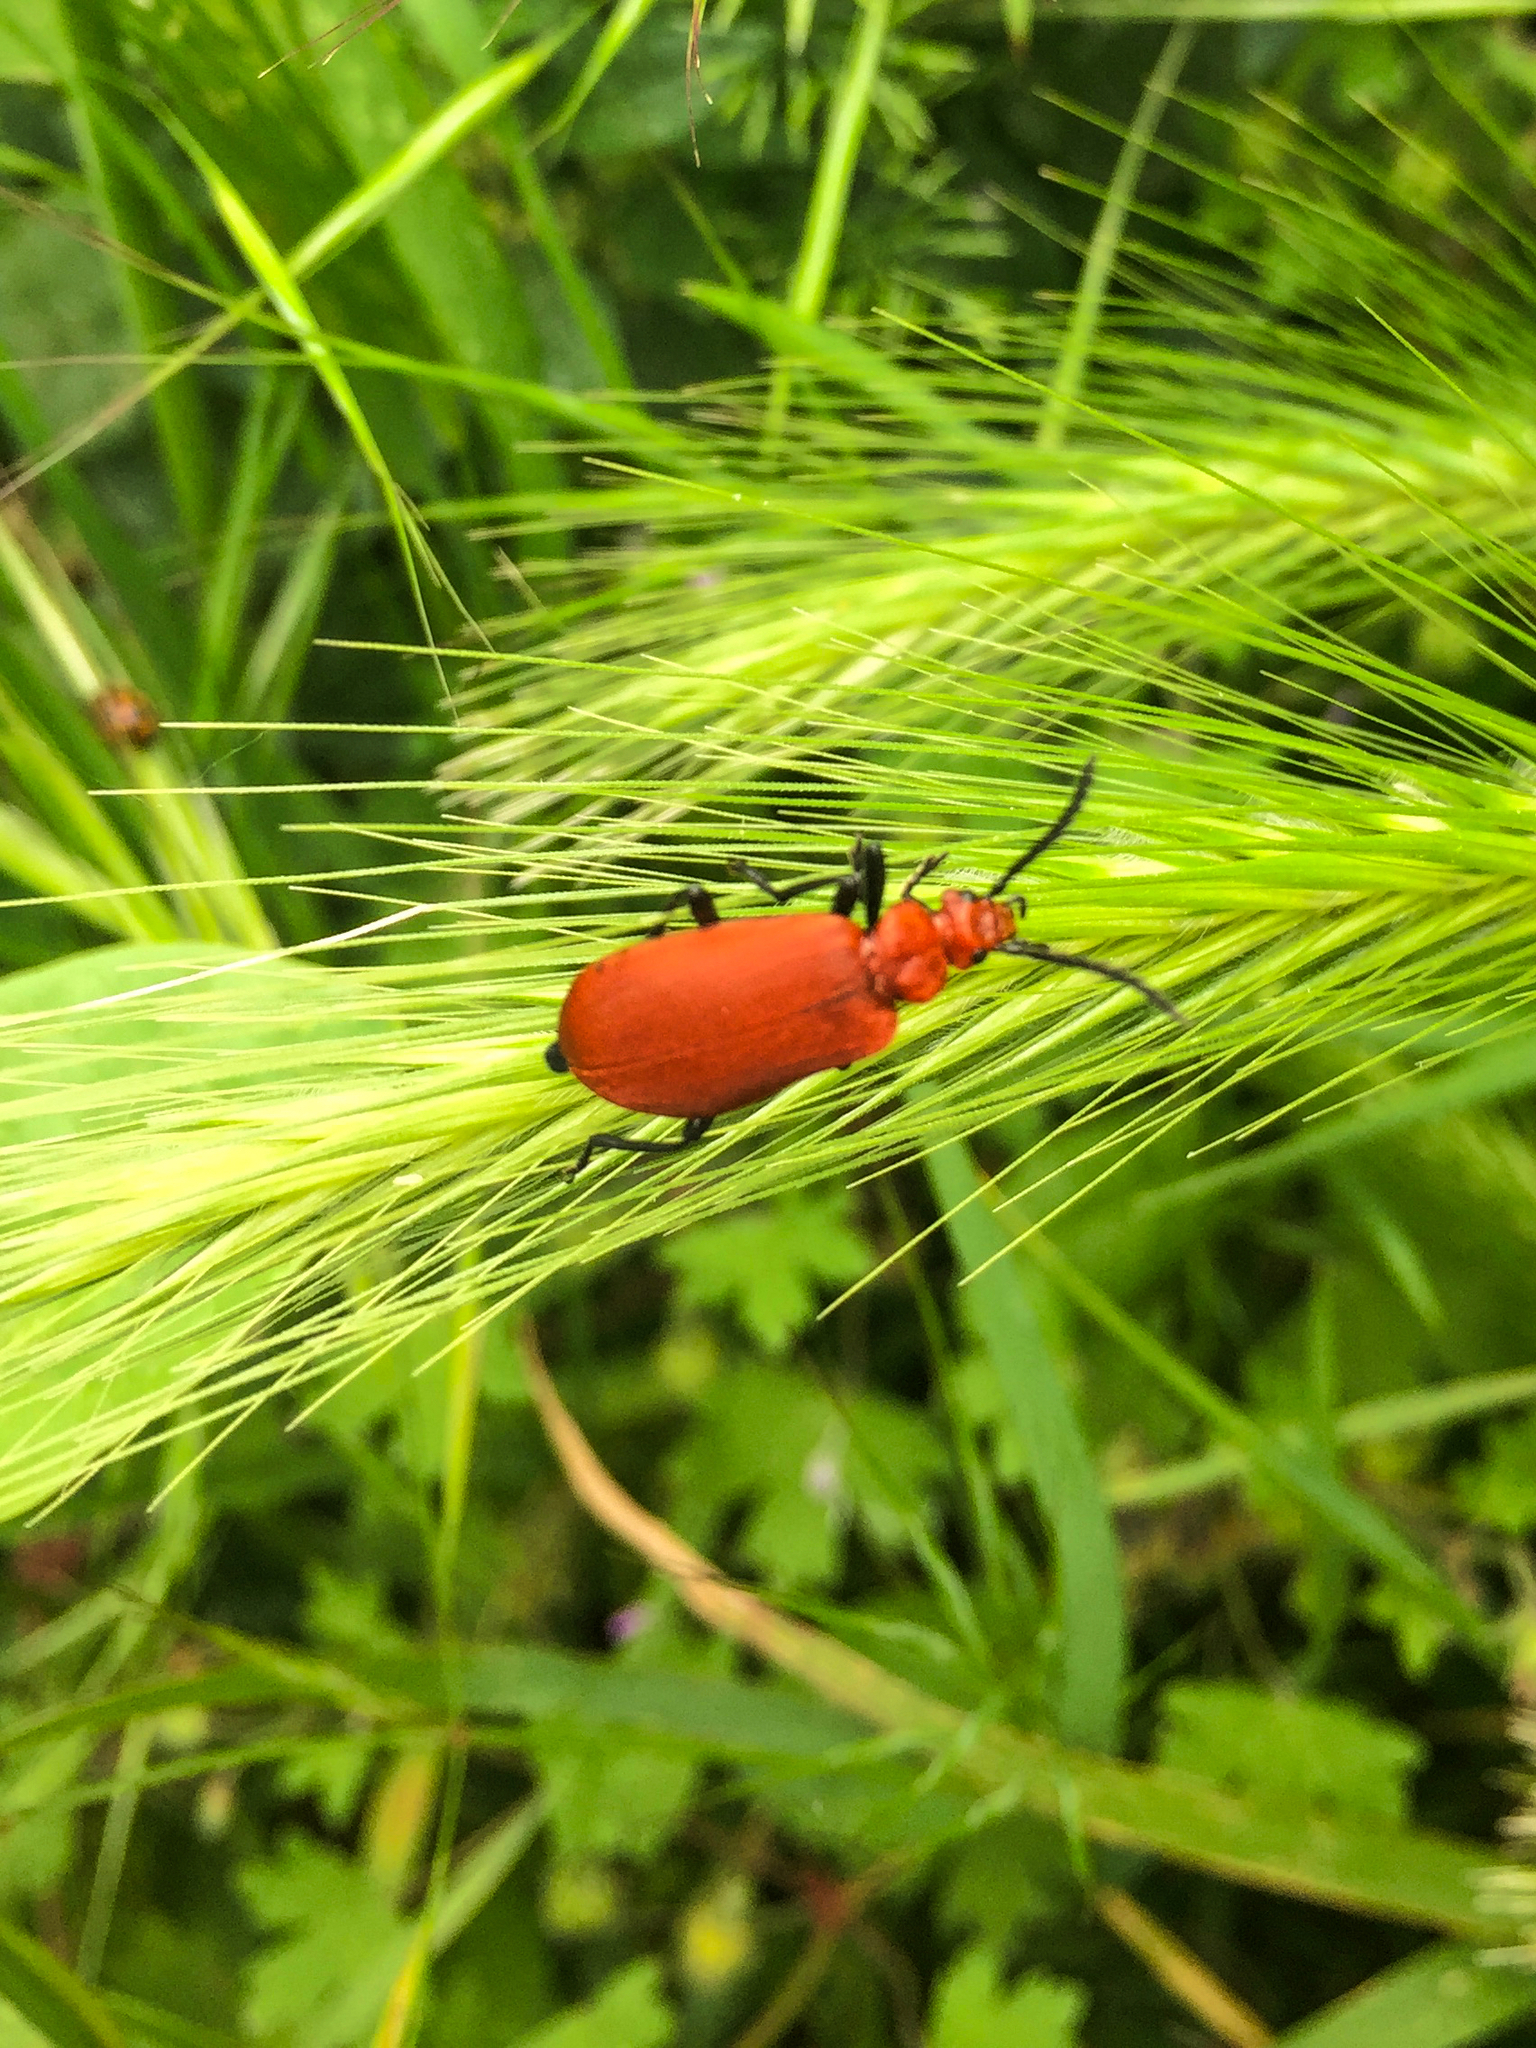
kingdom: Animalia
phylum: Arthropoda
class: Insecta
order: Coleoptera
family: Pyrochroidae
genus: Pyrochroa
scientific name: Pyrochroa serraticornis
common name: Red-headed cardinal beetle
